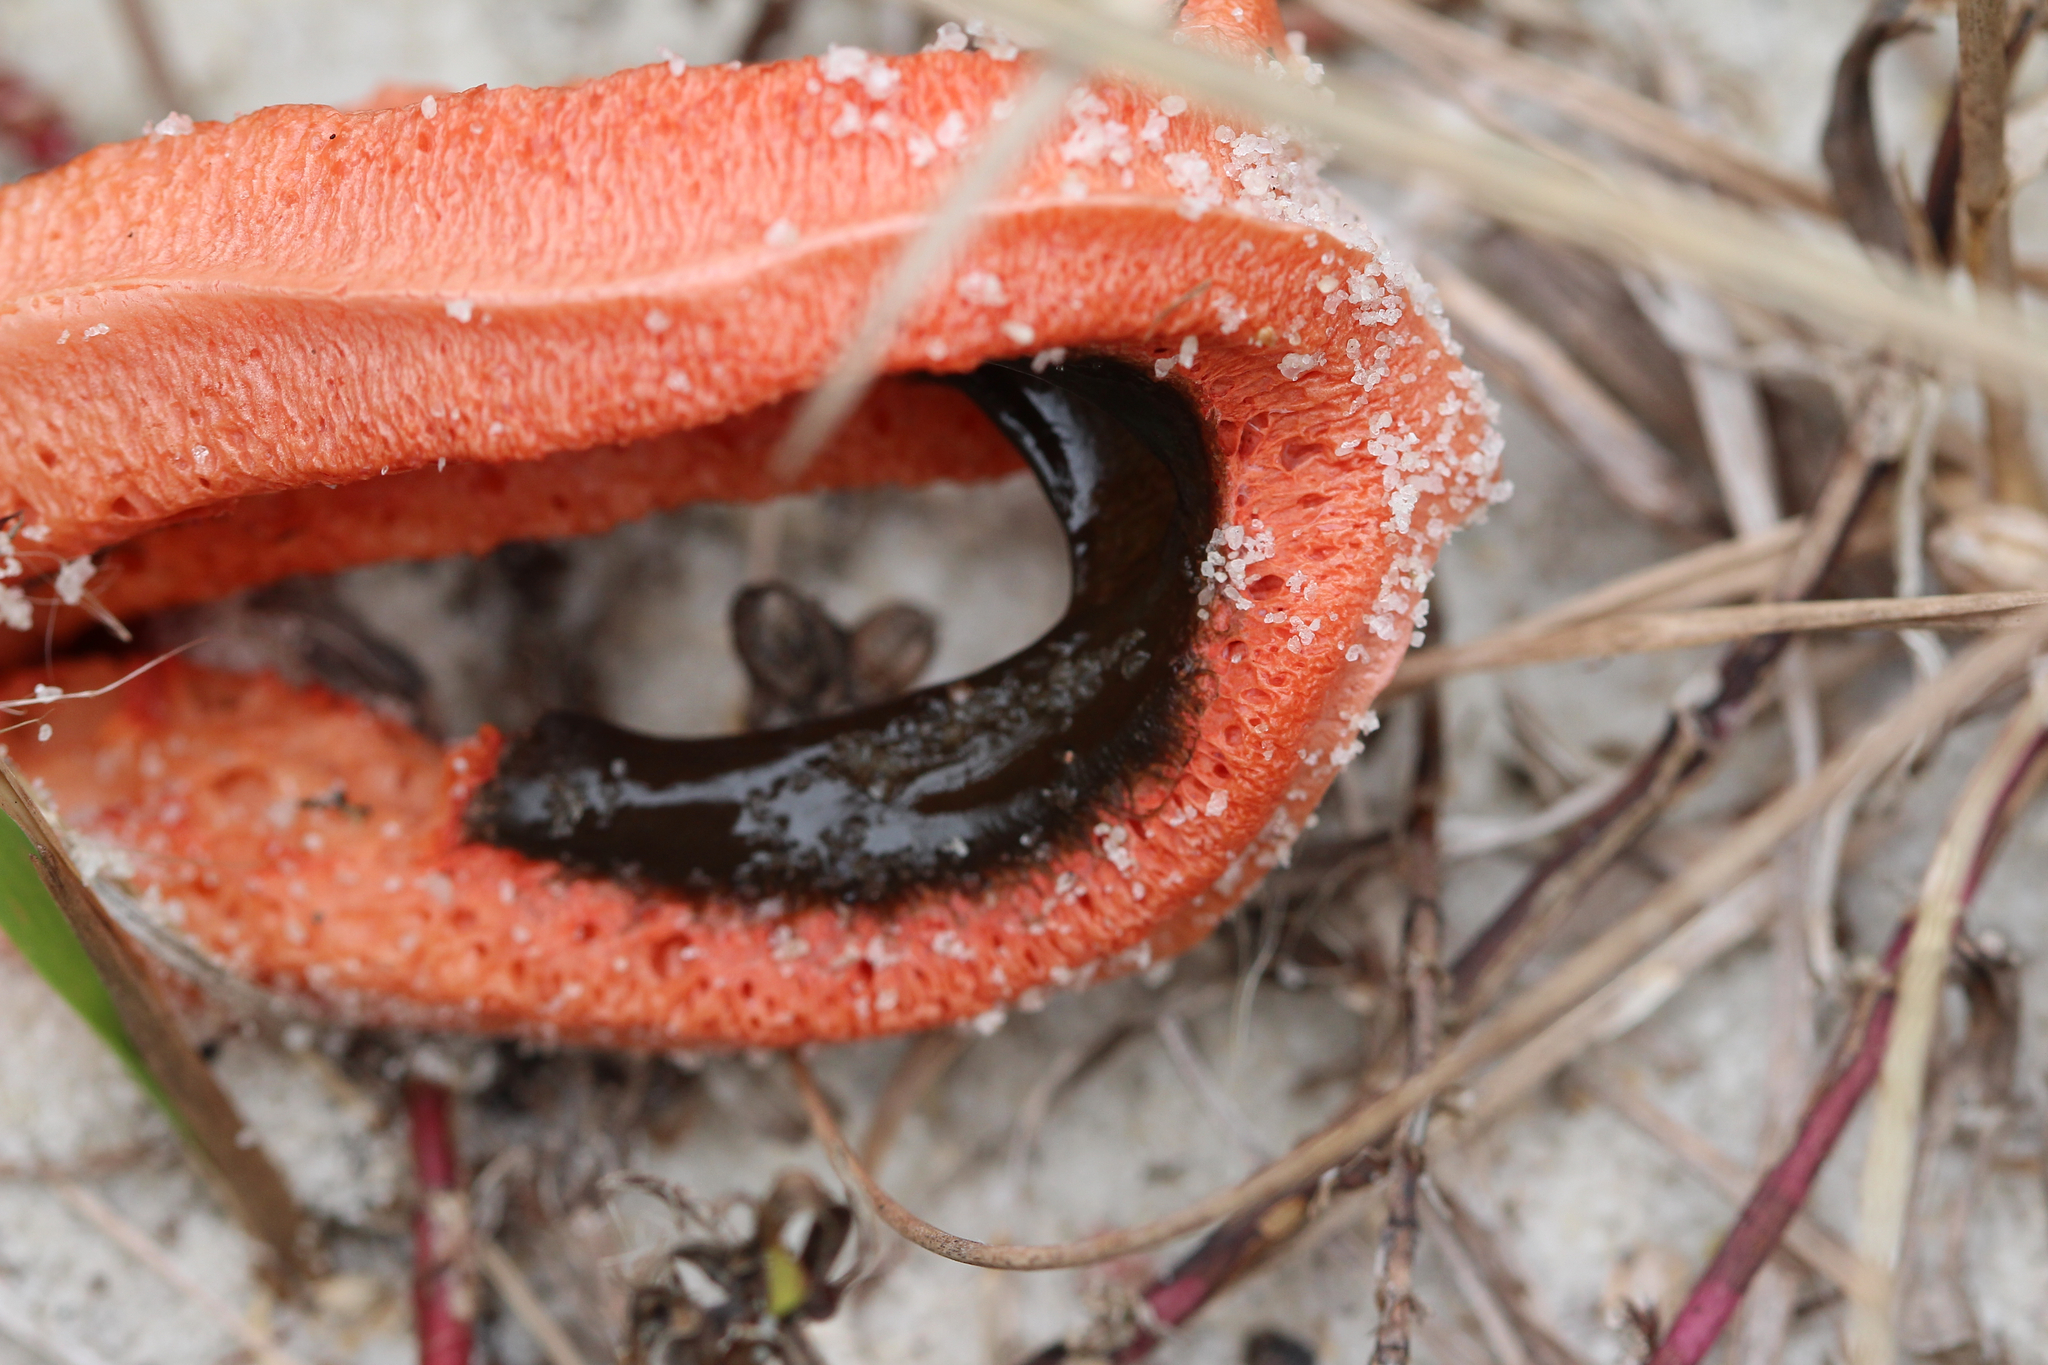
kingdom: Fungi
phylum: Basidiomycota
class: Agaricomycetes
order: Phallales
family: Phallaceae
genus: Clathrus
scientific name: Clathrus columnatus
